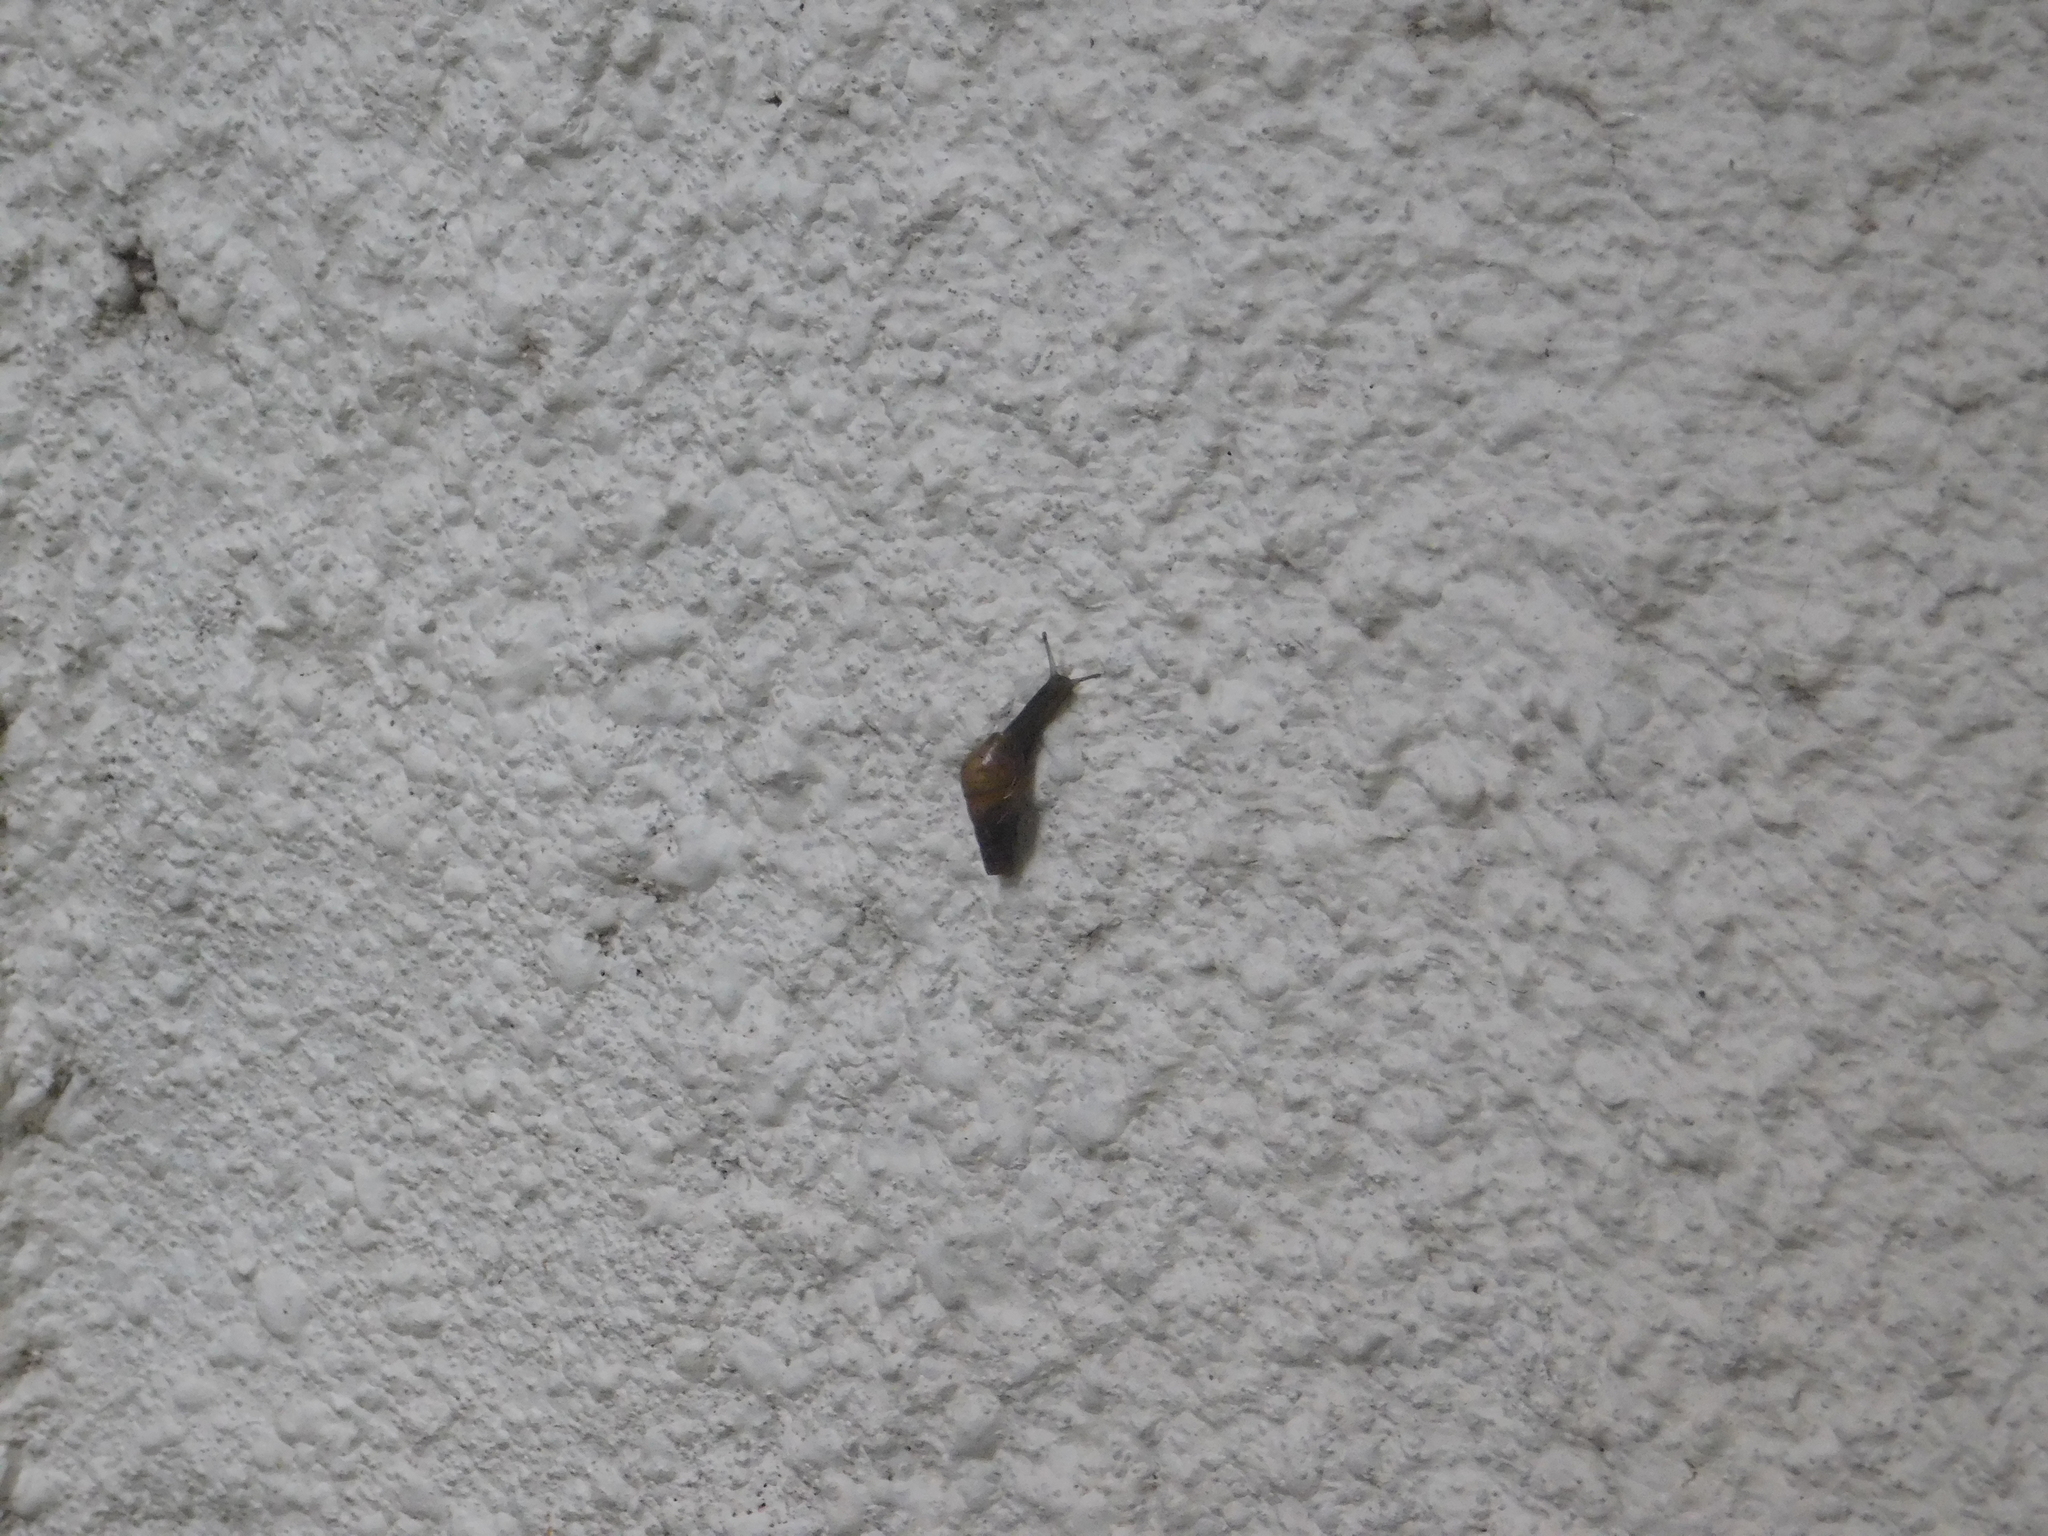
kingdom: Animalia
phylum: Mollusca
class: Gastropoda
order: Stylommatophora
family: Achatinidae
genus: Rumina
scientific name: Rumina decollata
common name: Decollate snail
